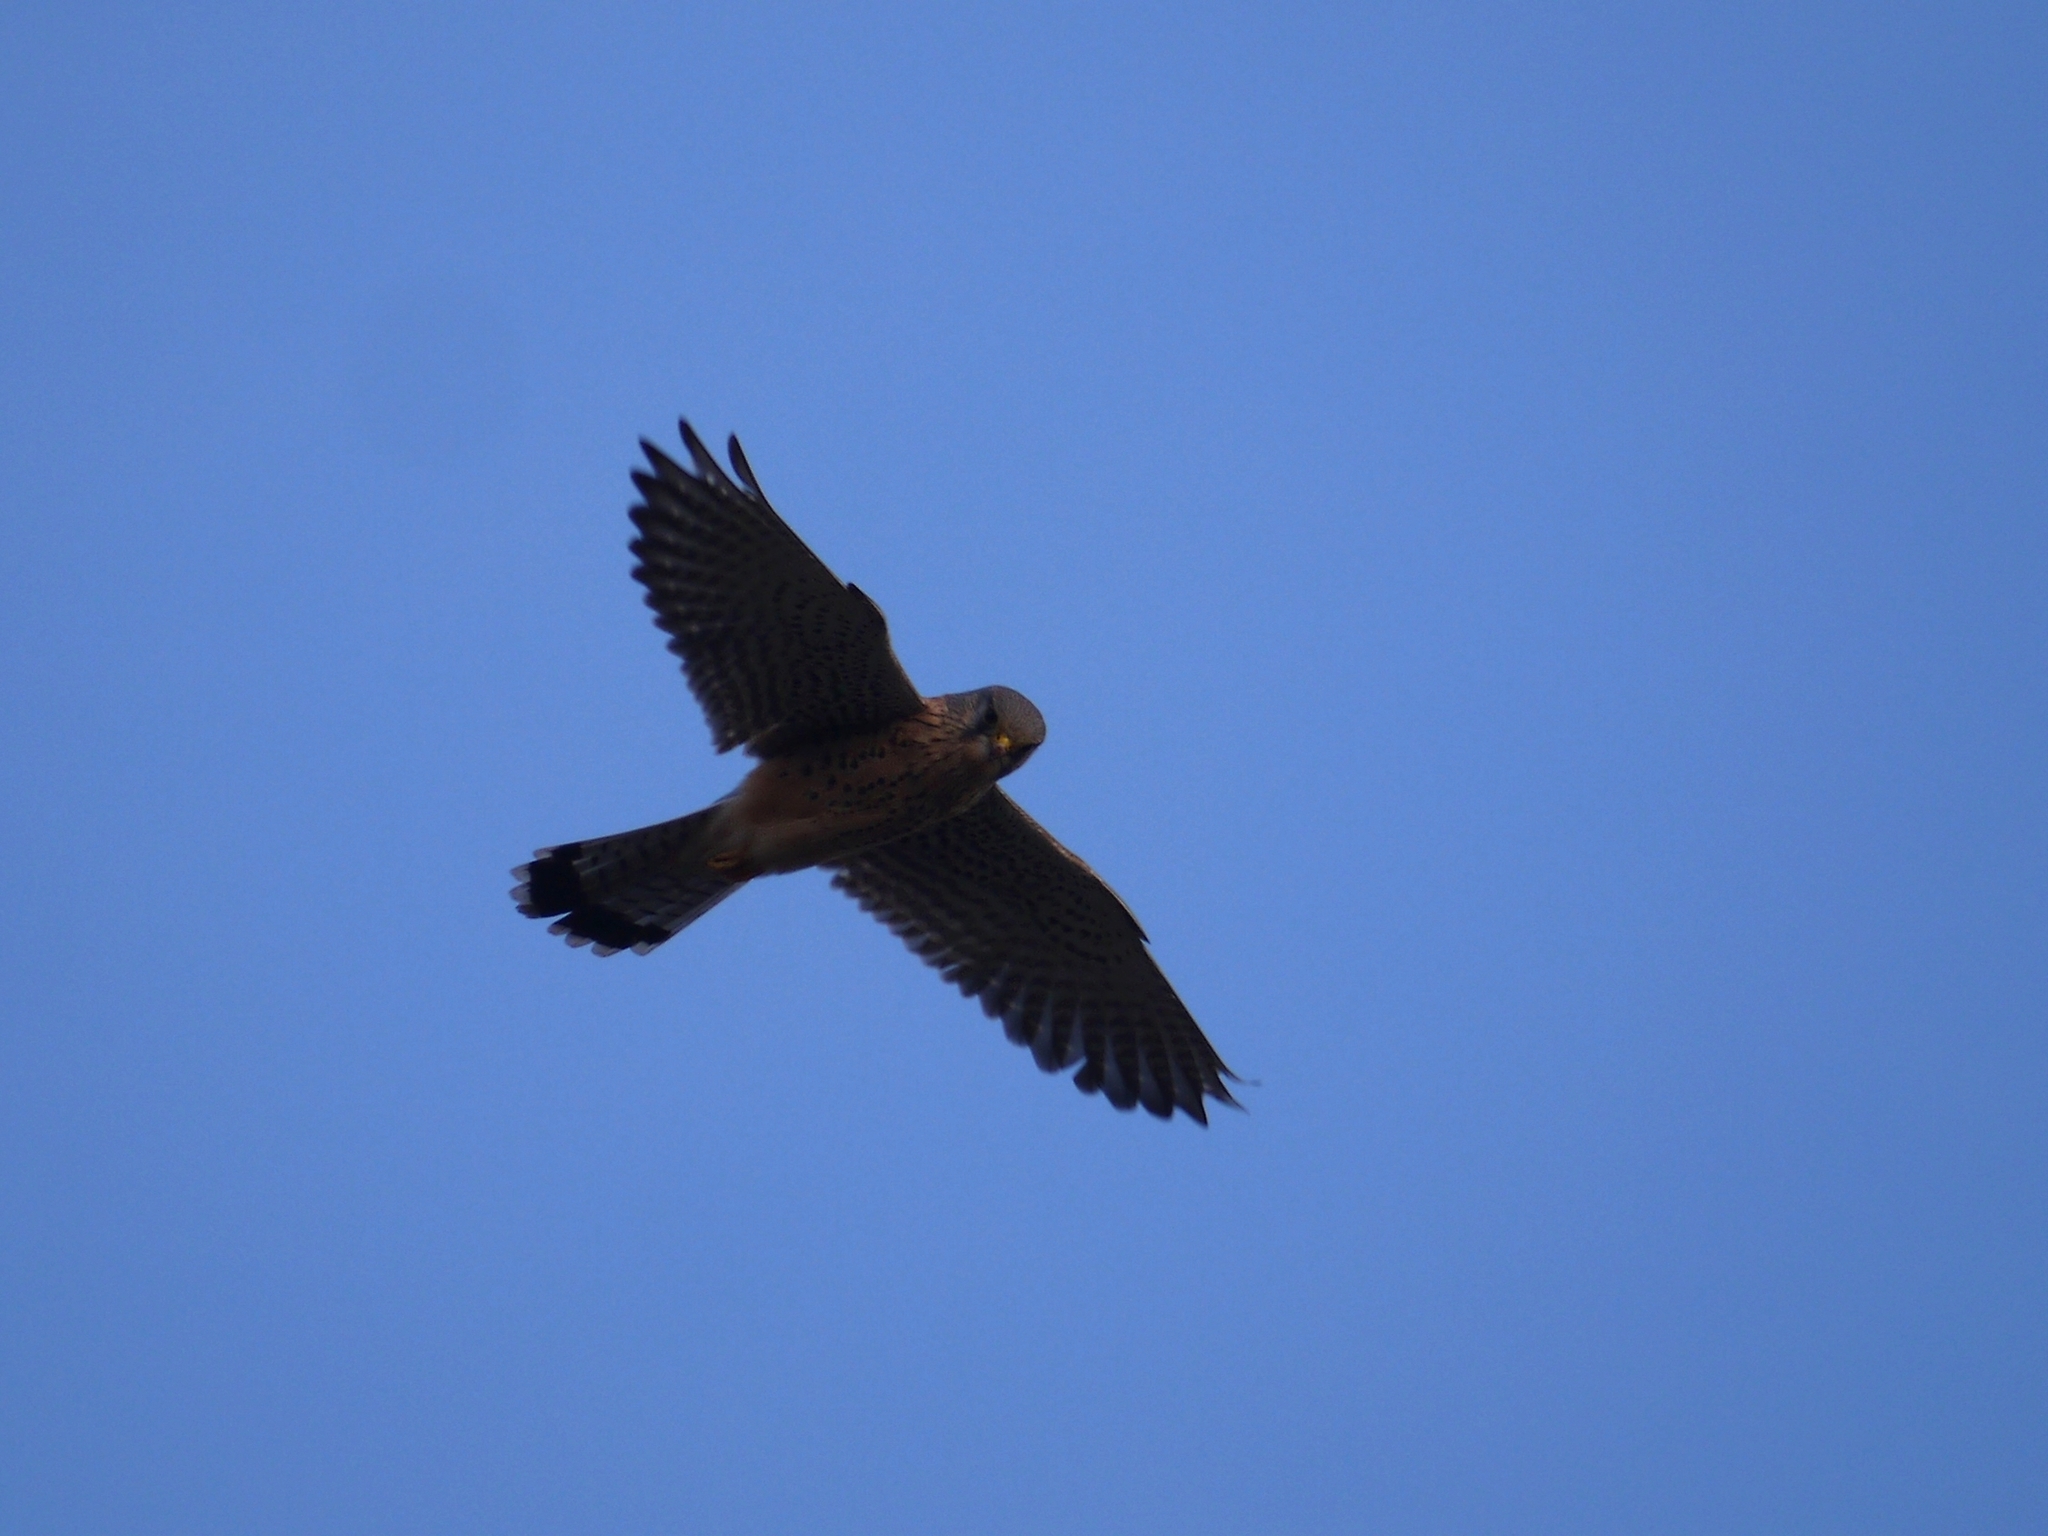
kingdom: Animalia
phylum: Chordata
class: Aves
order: Falconiformes
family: Falconidae
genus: Falco
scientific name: Falco tinnunculus
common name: Common kestrel
